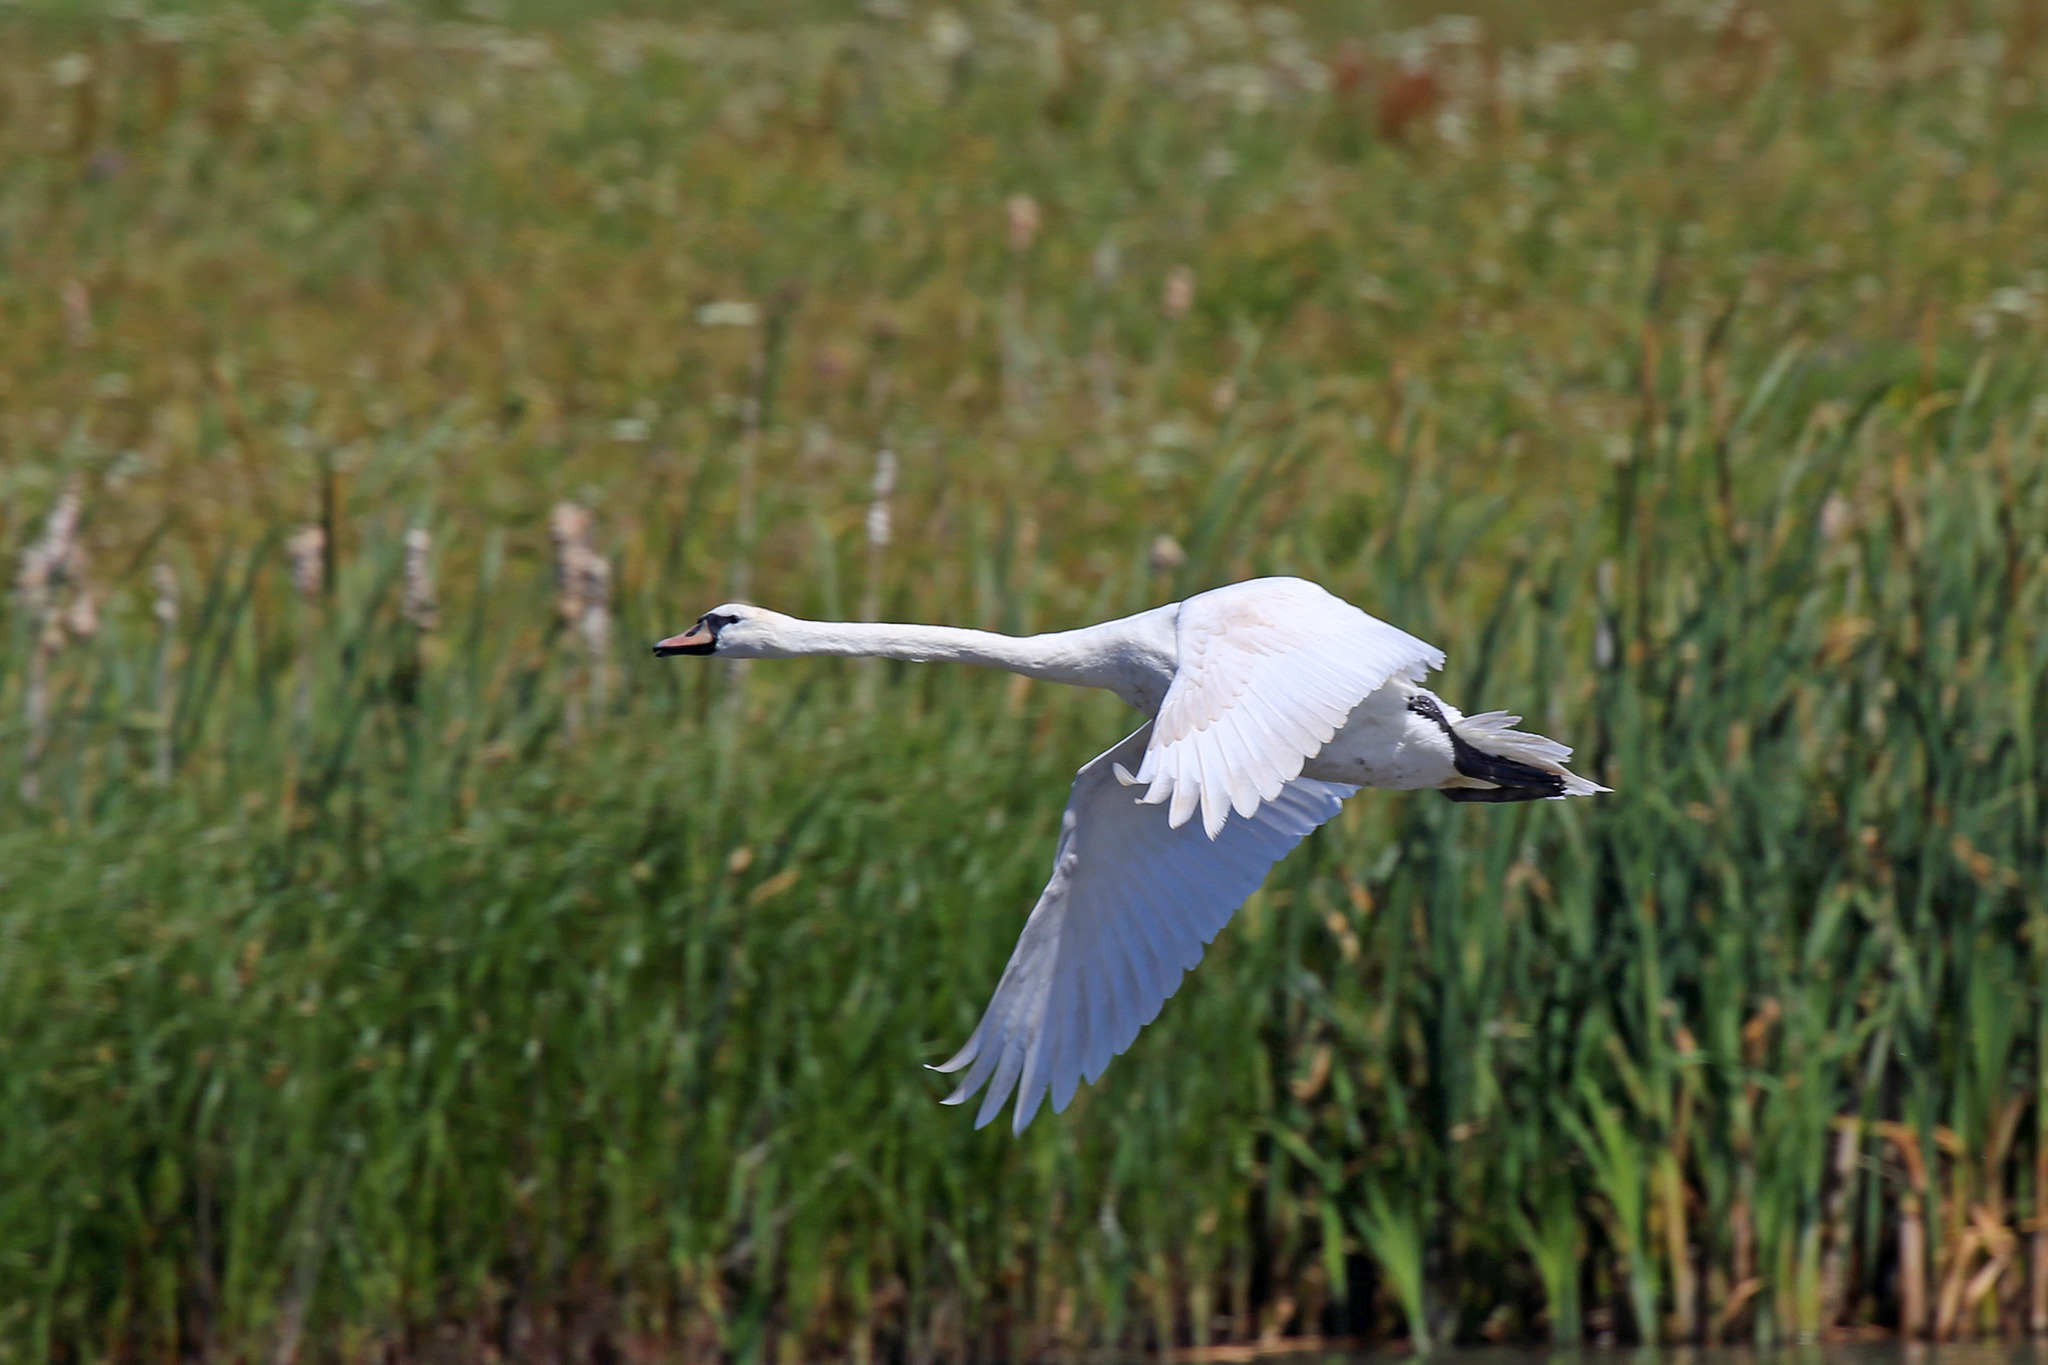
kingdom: Animalia
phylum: Chordata
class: Aves
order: Anseriformes
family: Anatidae
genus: Cygnus
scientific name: Cygnus olor
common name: Mute swan
